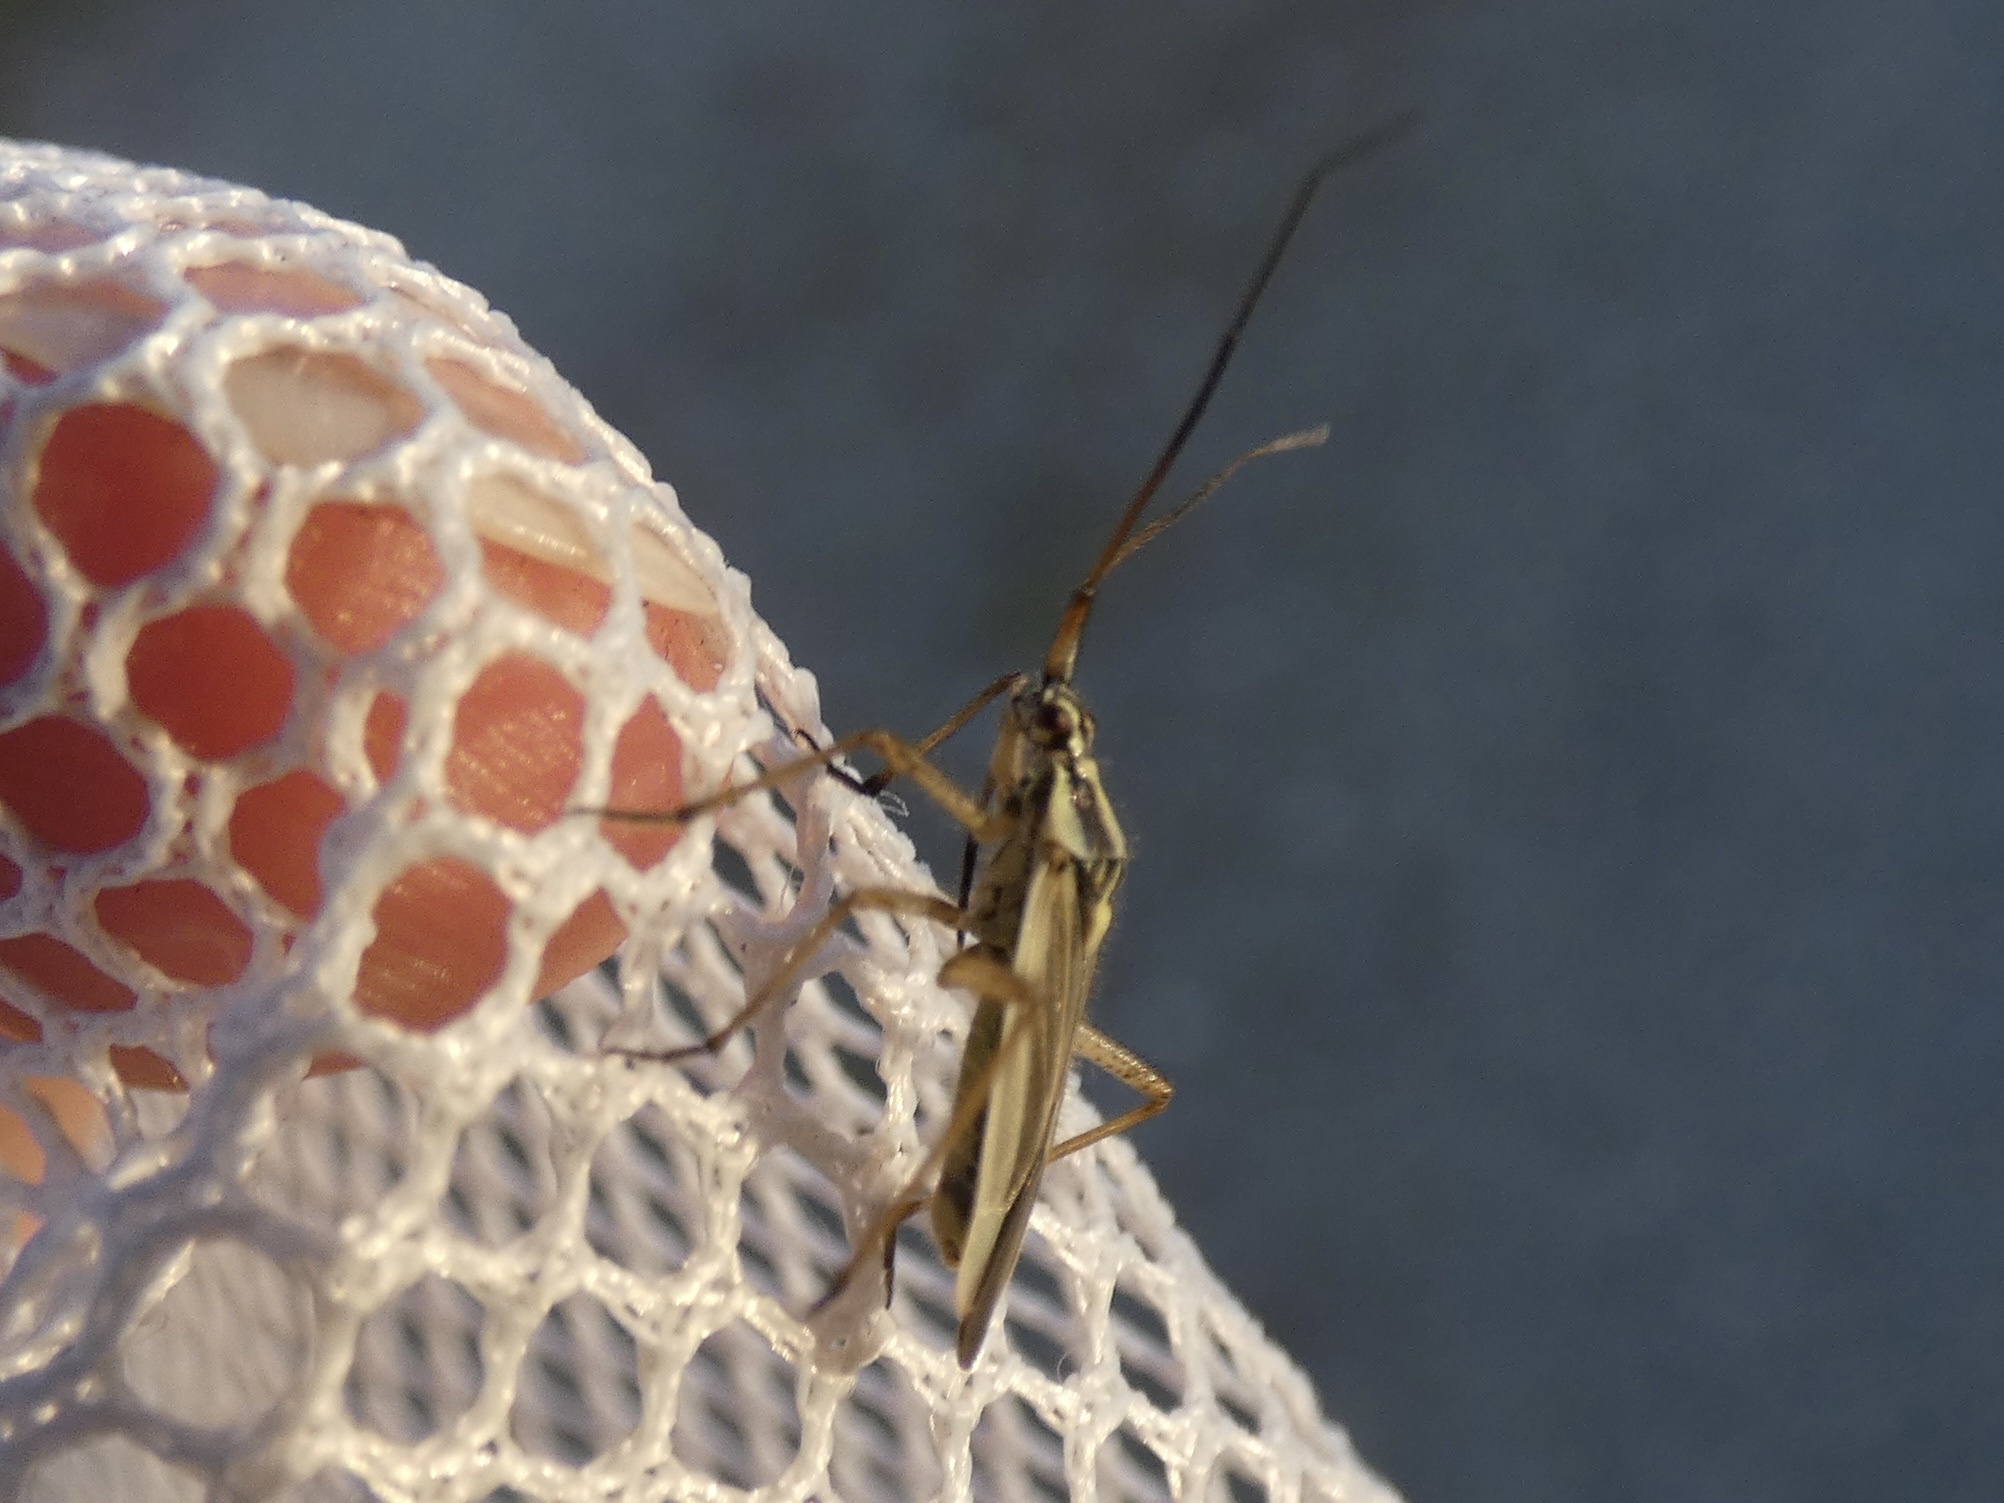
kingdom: Animalia
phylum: Arthropoda
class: Insecta
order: Hemiptera
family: Miridae
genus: Leptopterna
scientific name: Leptopterna dolabrata
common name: Meadow plant bug
